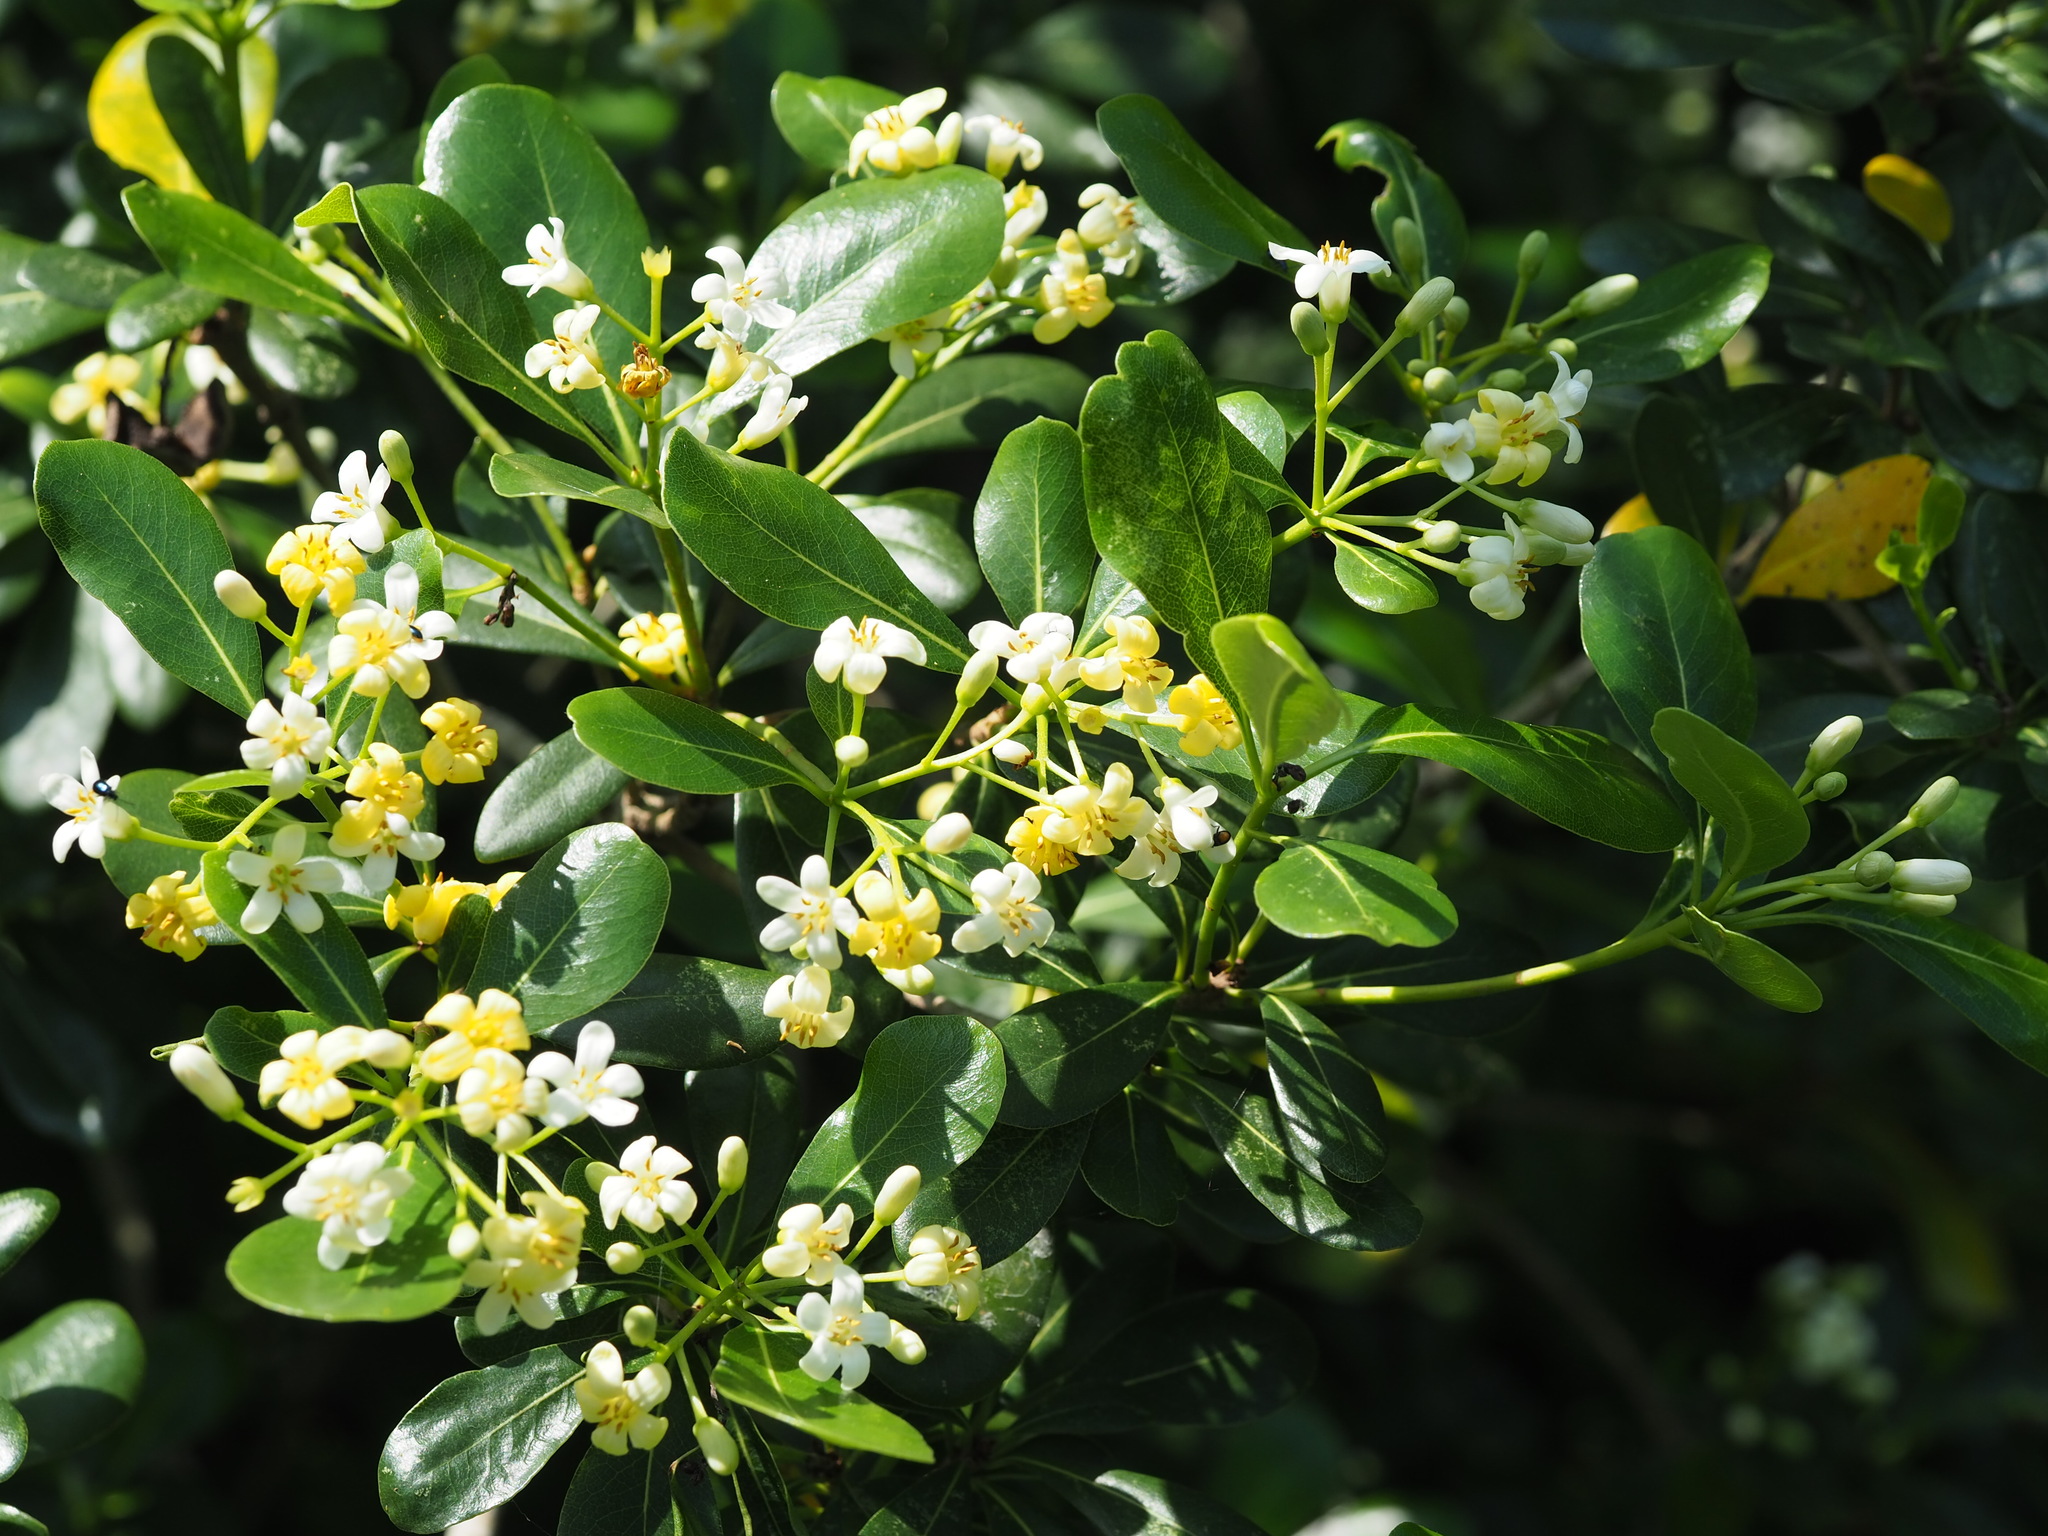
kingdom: Plantae
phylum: Tracheophyta
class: Magnoliopsida
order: Apiales
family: Pittosporaceae
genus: Pittosporum
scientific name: Pittosporum tobira
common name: Japanese cheesewood
